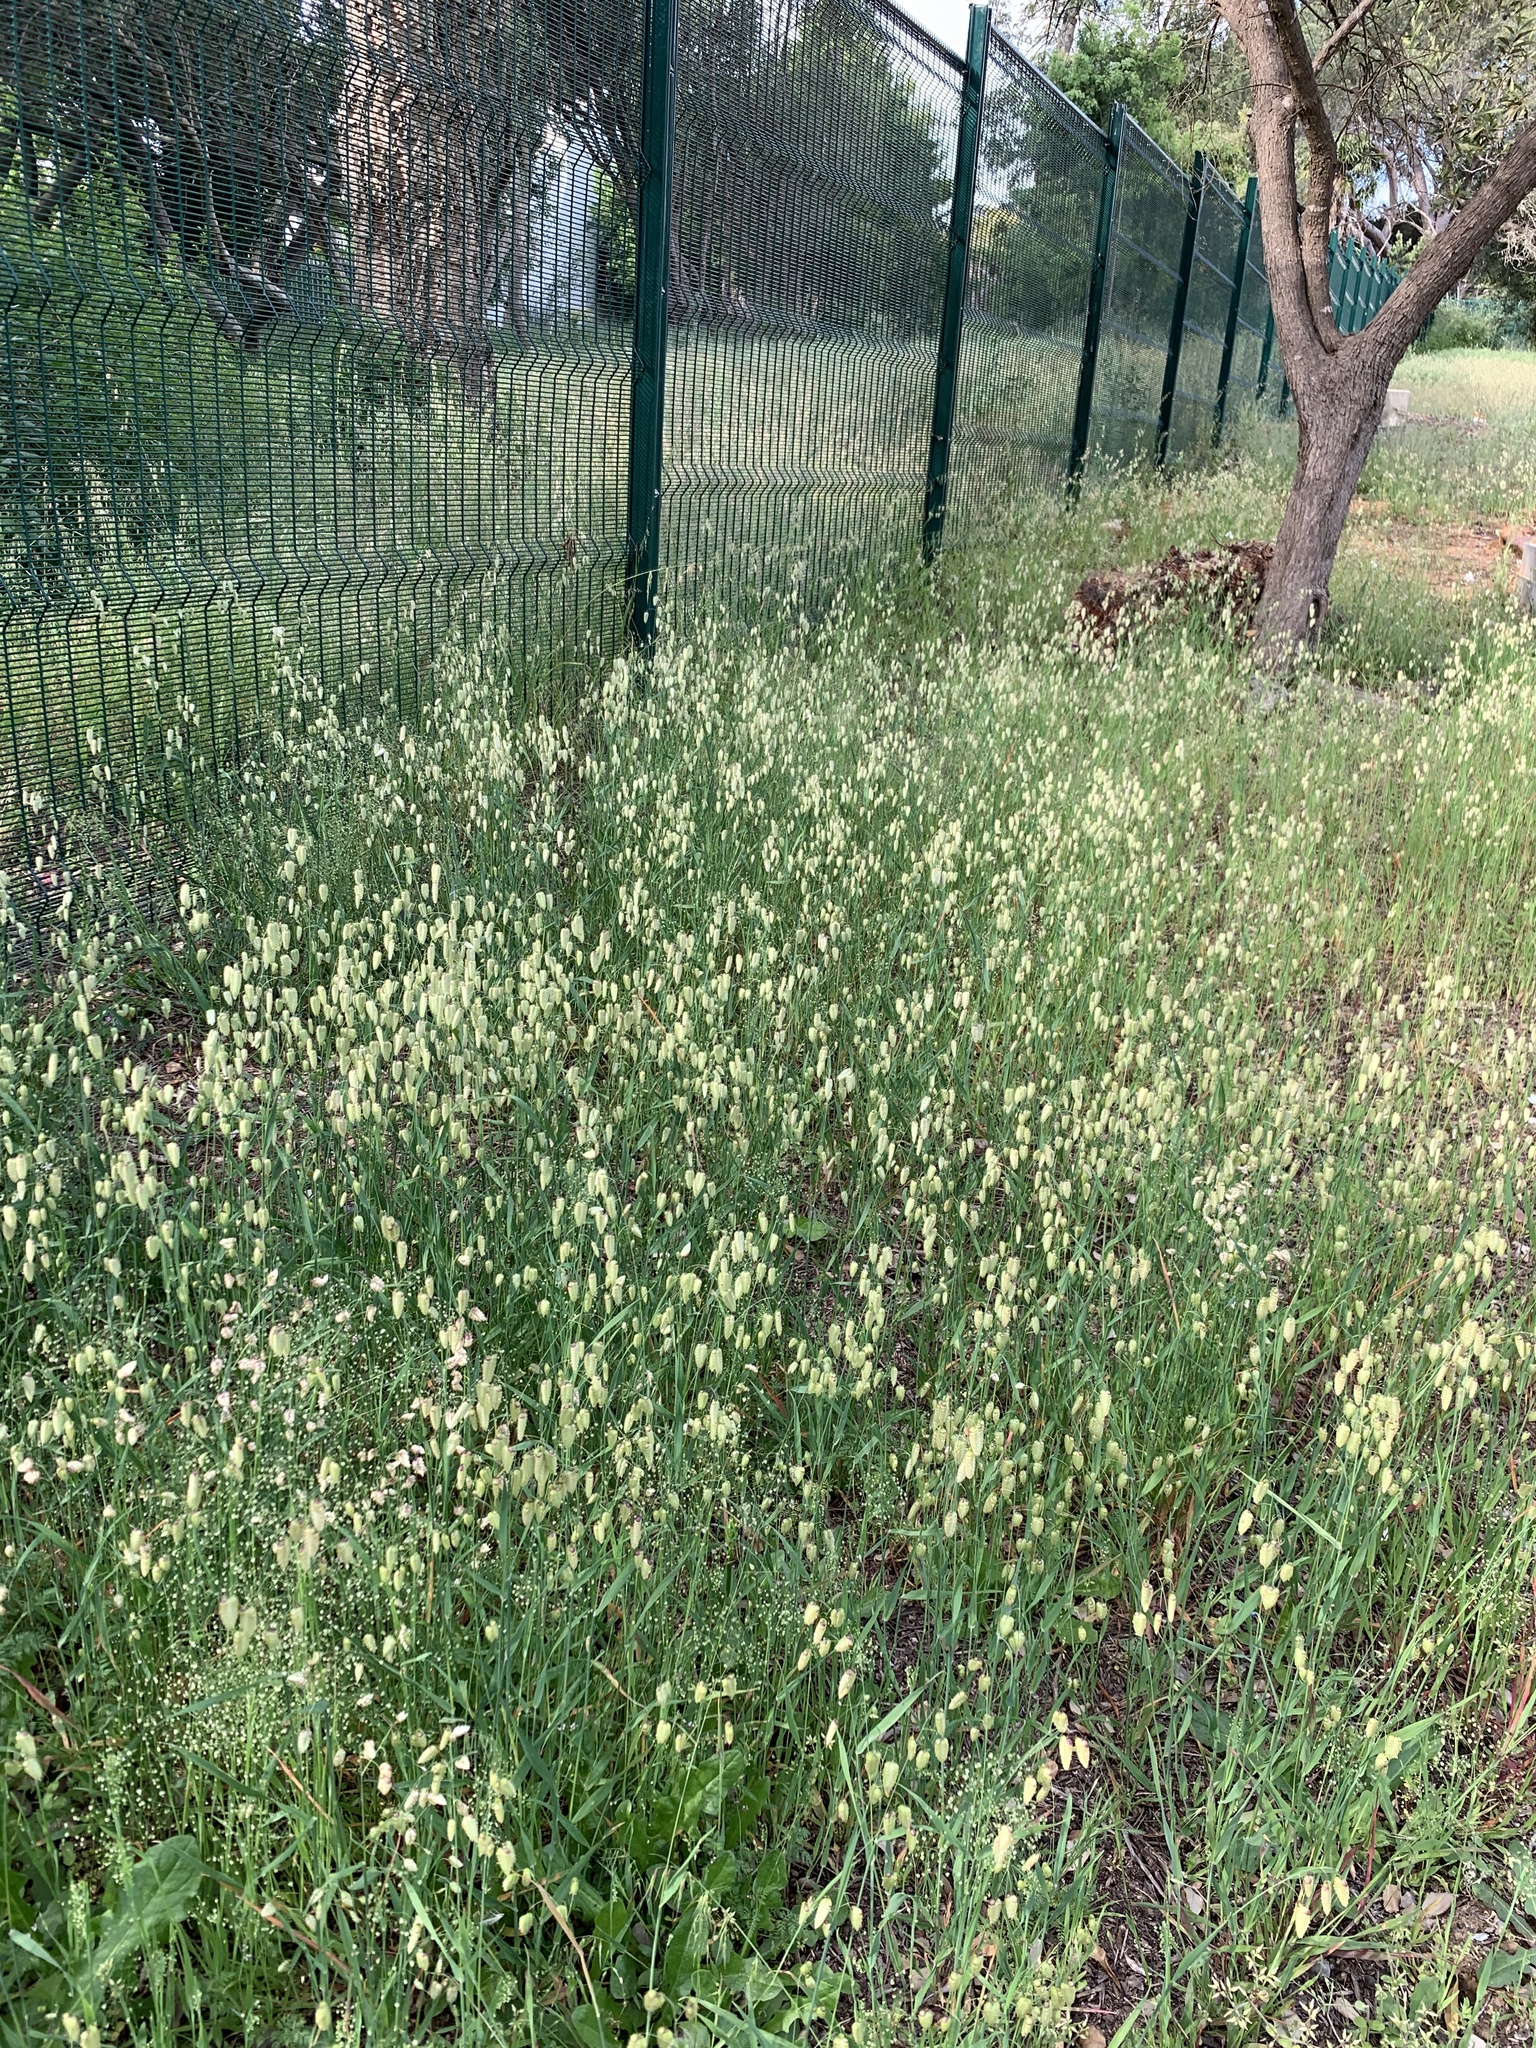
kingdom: Plantae
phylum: Tracheophyta
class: Liliopsida
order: Poales
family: Poaceae
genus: Briza
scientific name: Briza maxima
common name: Big quakinggrass
